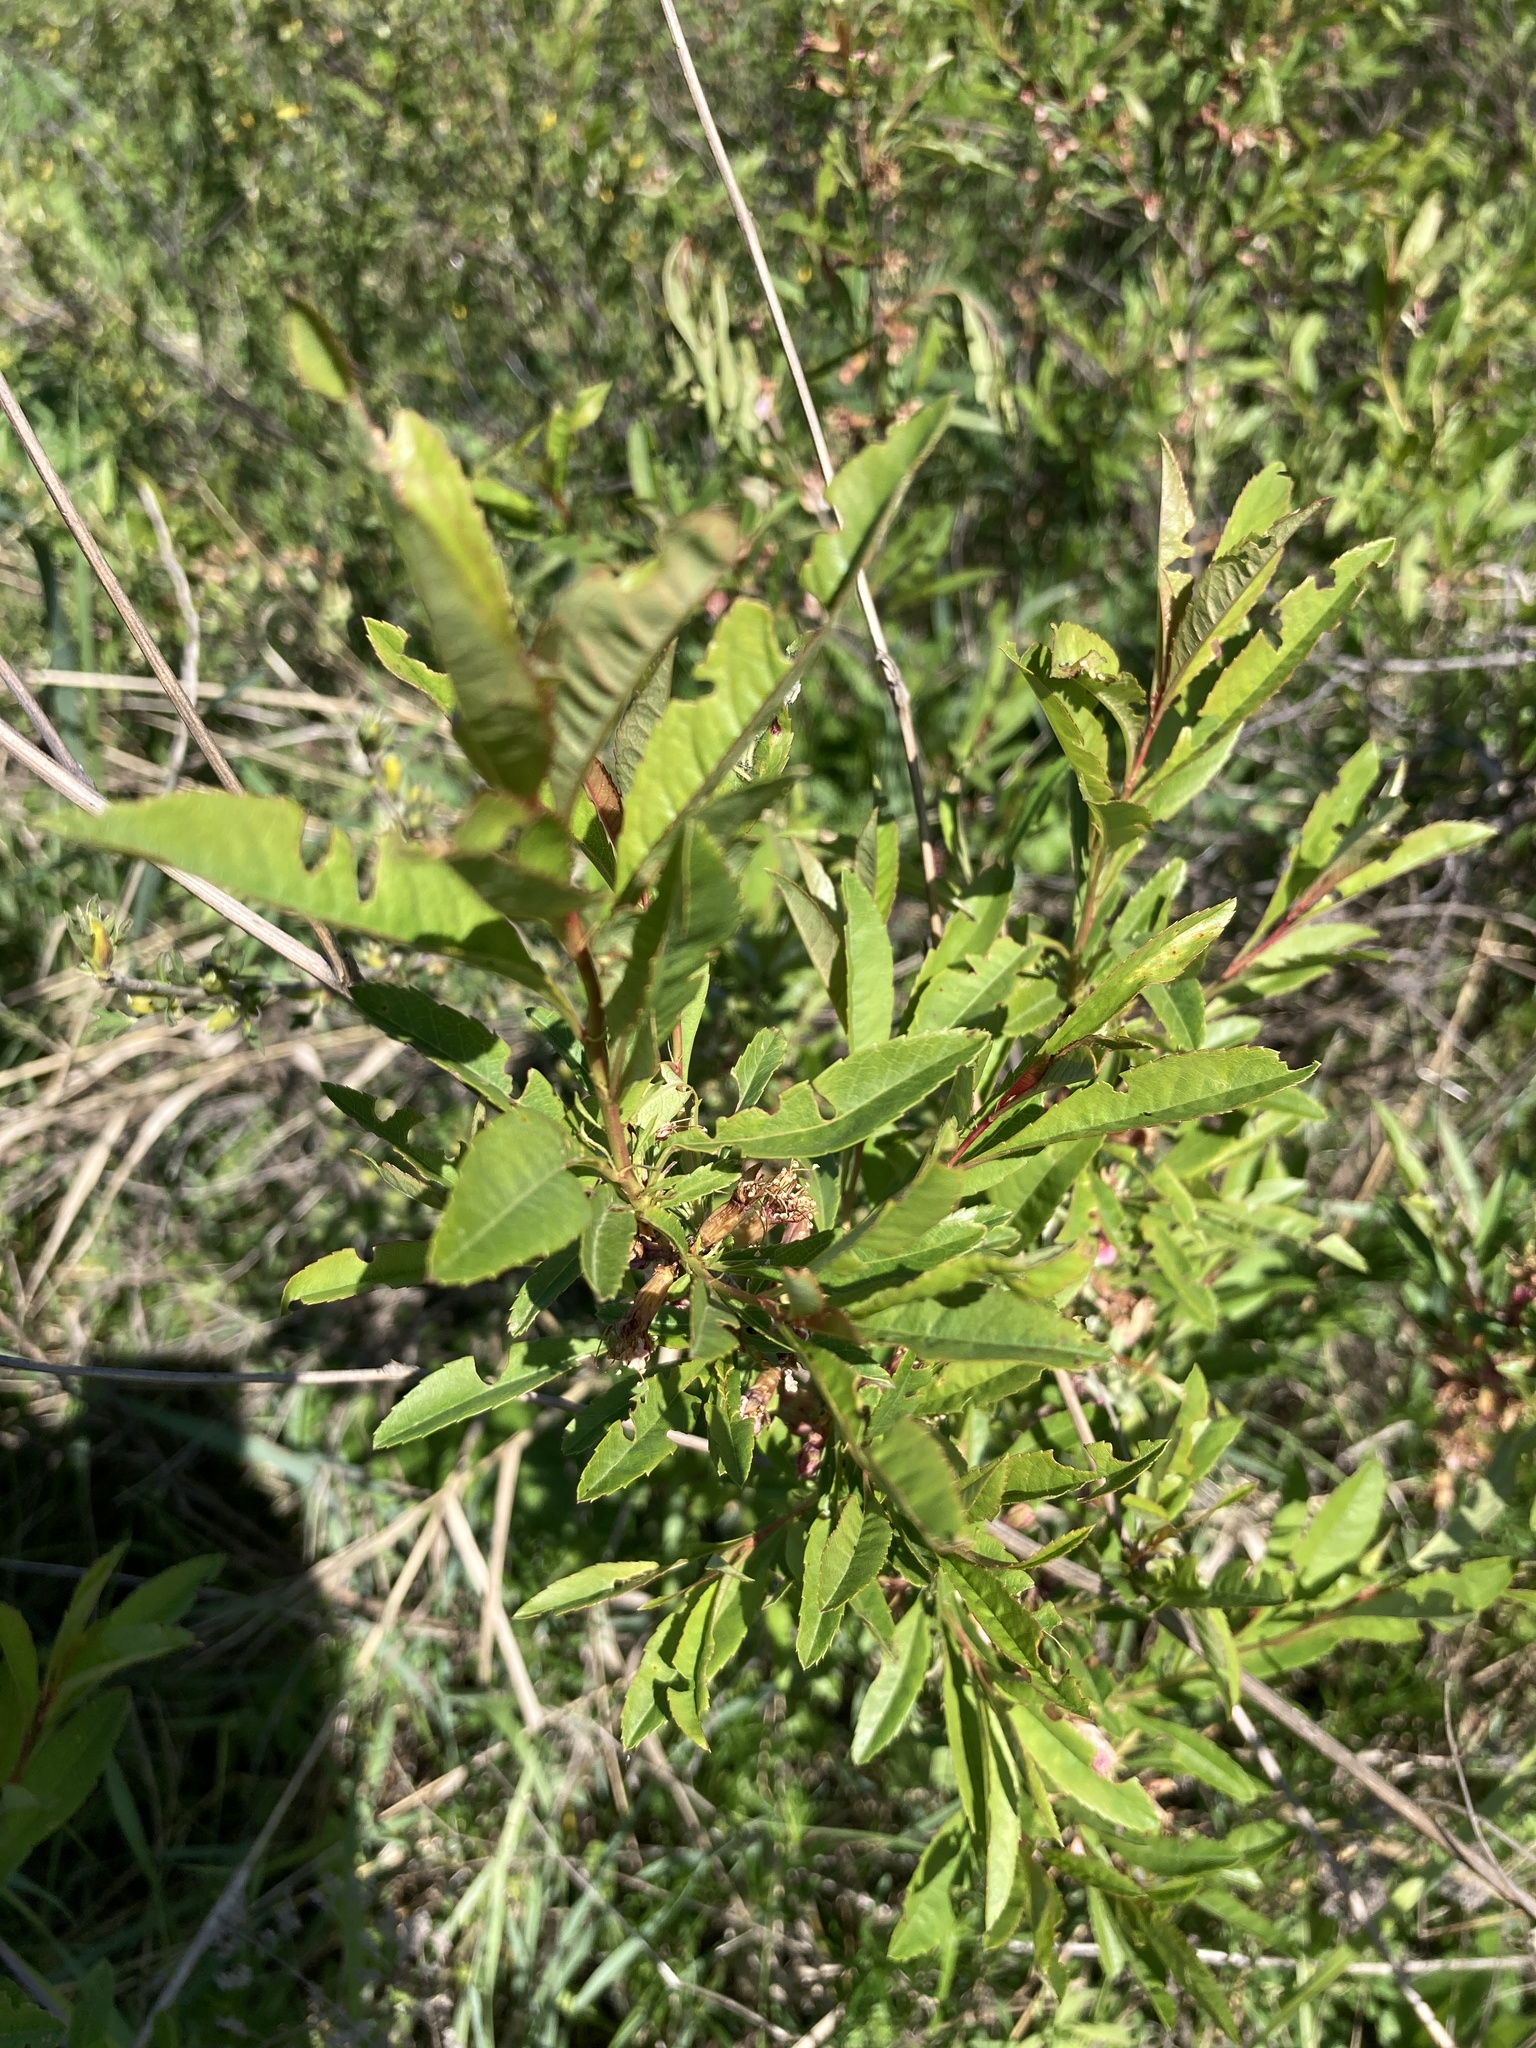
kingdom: Plantae
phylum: Tracheophyta
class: Magnoliopsida
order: Rosales
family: Rosaceae
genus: Prunus
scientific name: Prunus tenella
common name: Dwarf russian almond
